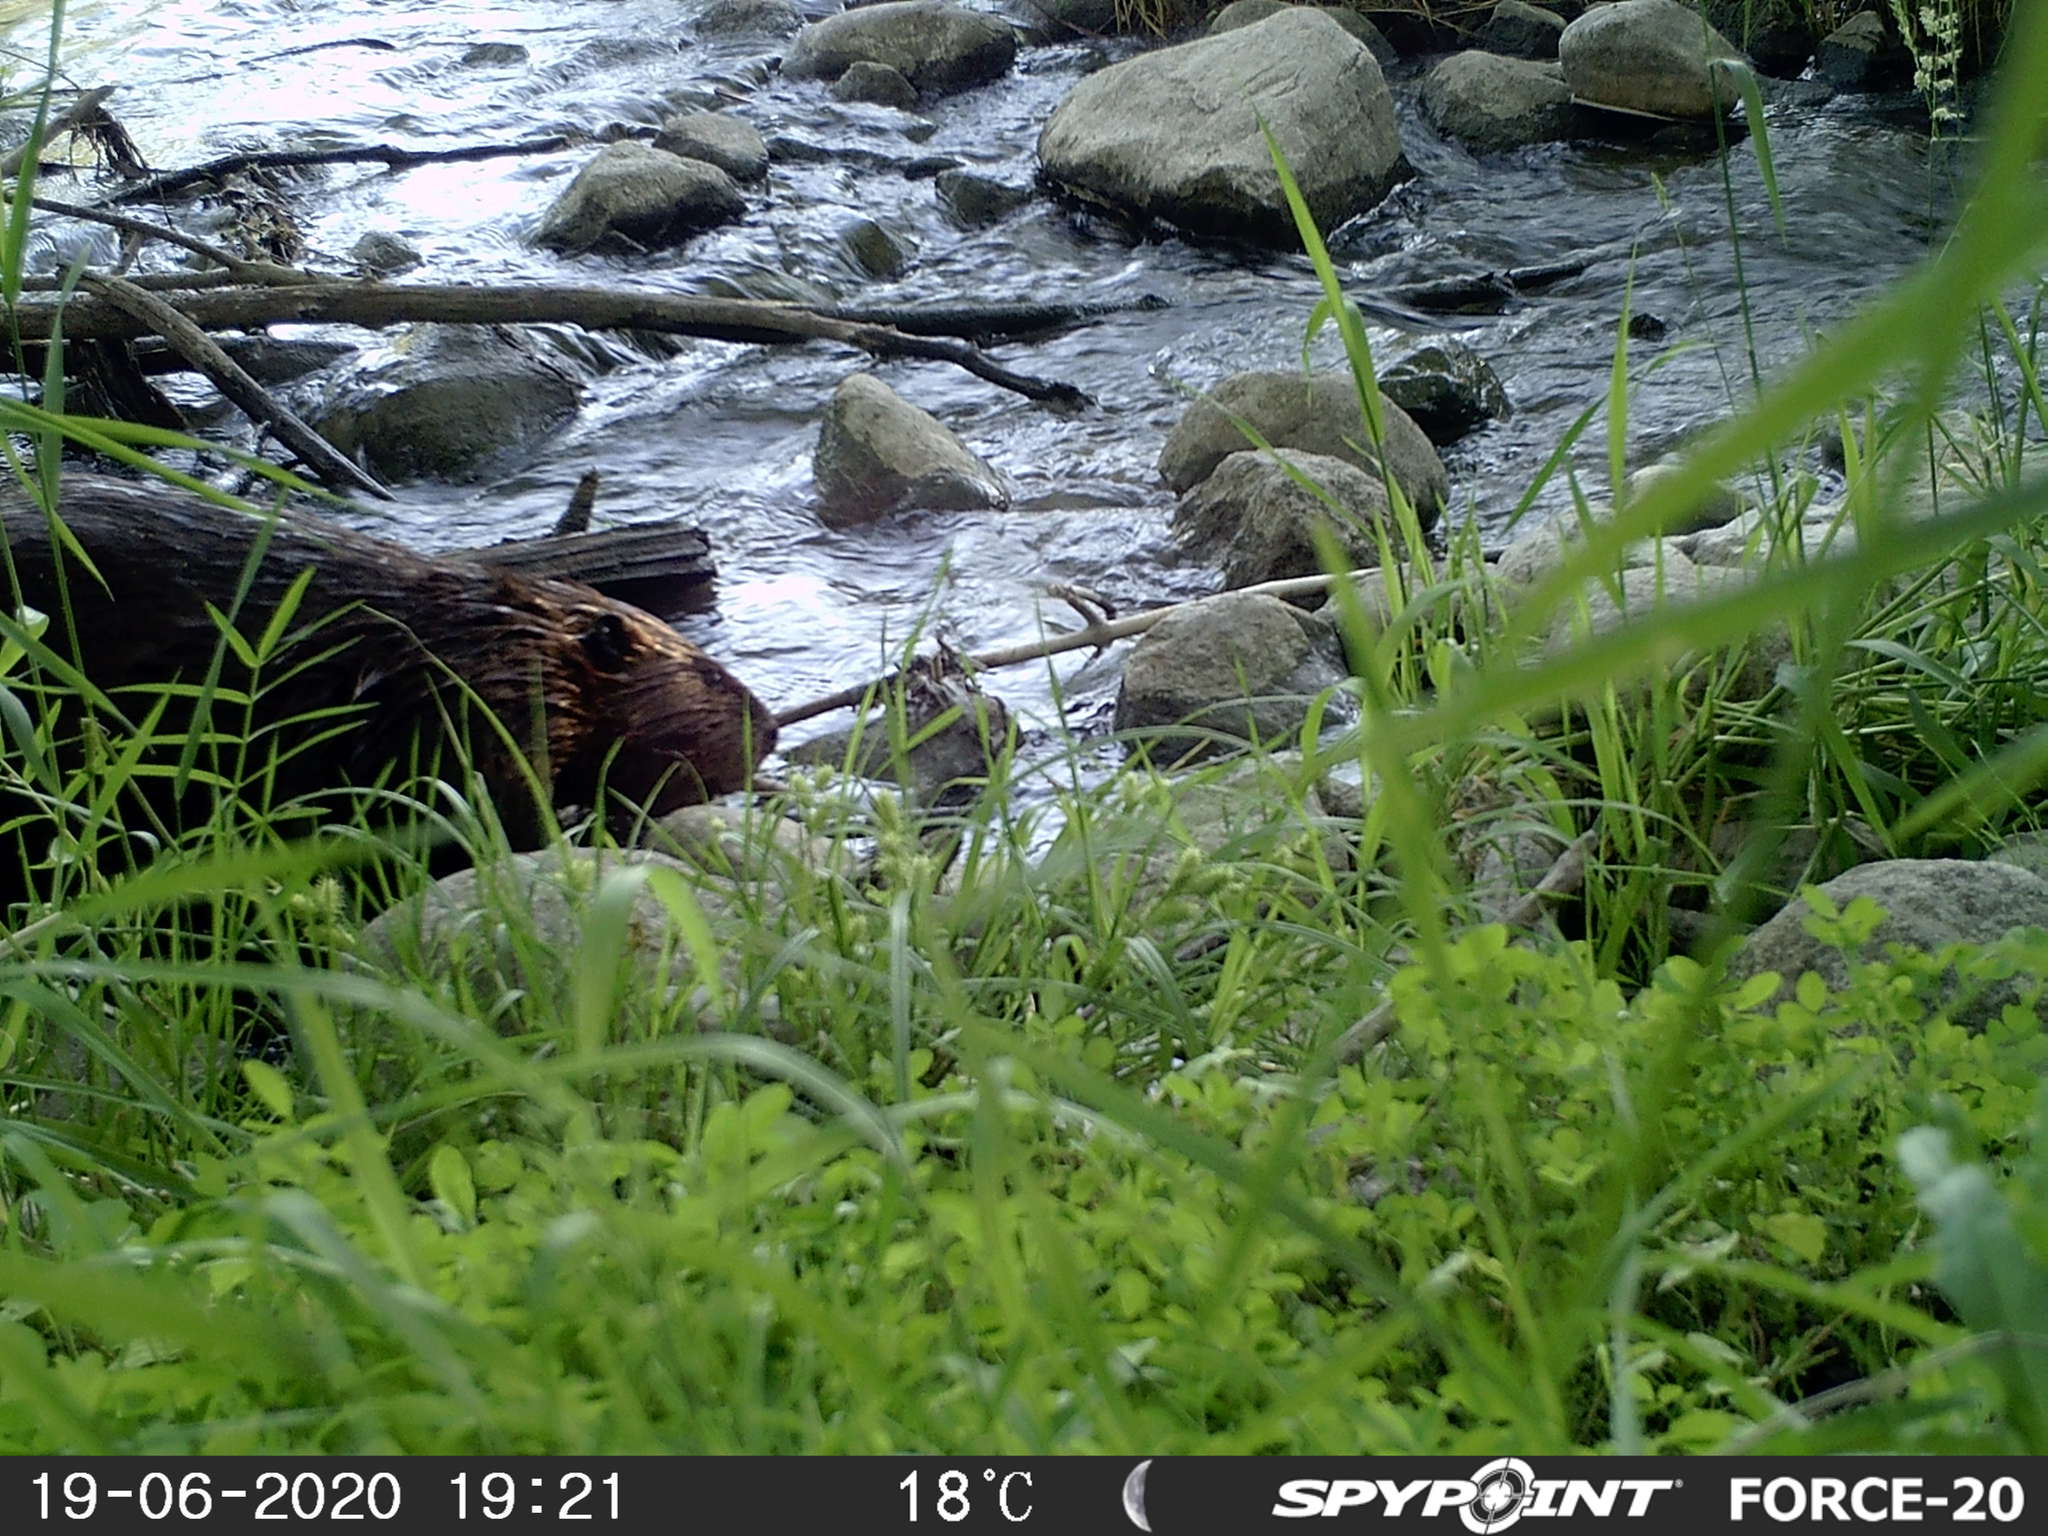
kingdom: Animalia
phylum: Chordata
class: Mammalia
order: Rodentia
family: Castoridae
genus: Castor
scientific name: Castor canadensis
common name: American beaver
